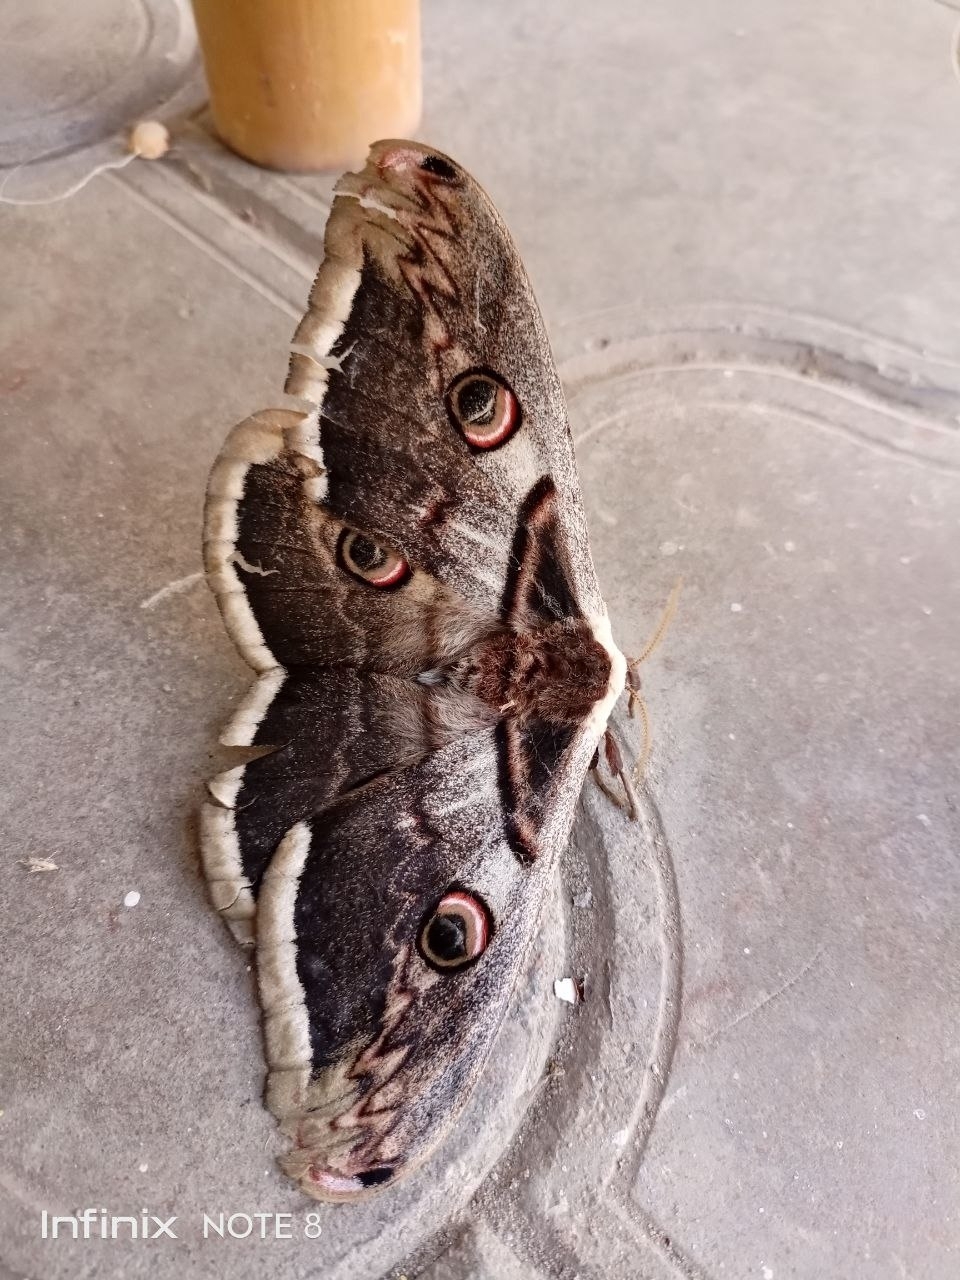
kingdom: Animalia
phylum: Arthropoda
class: Insecta
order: Lepidoptera
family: Saturniidae
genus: Saturnia
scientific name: Saturnia pyri
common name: Great peacock moth
